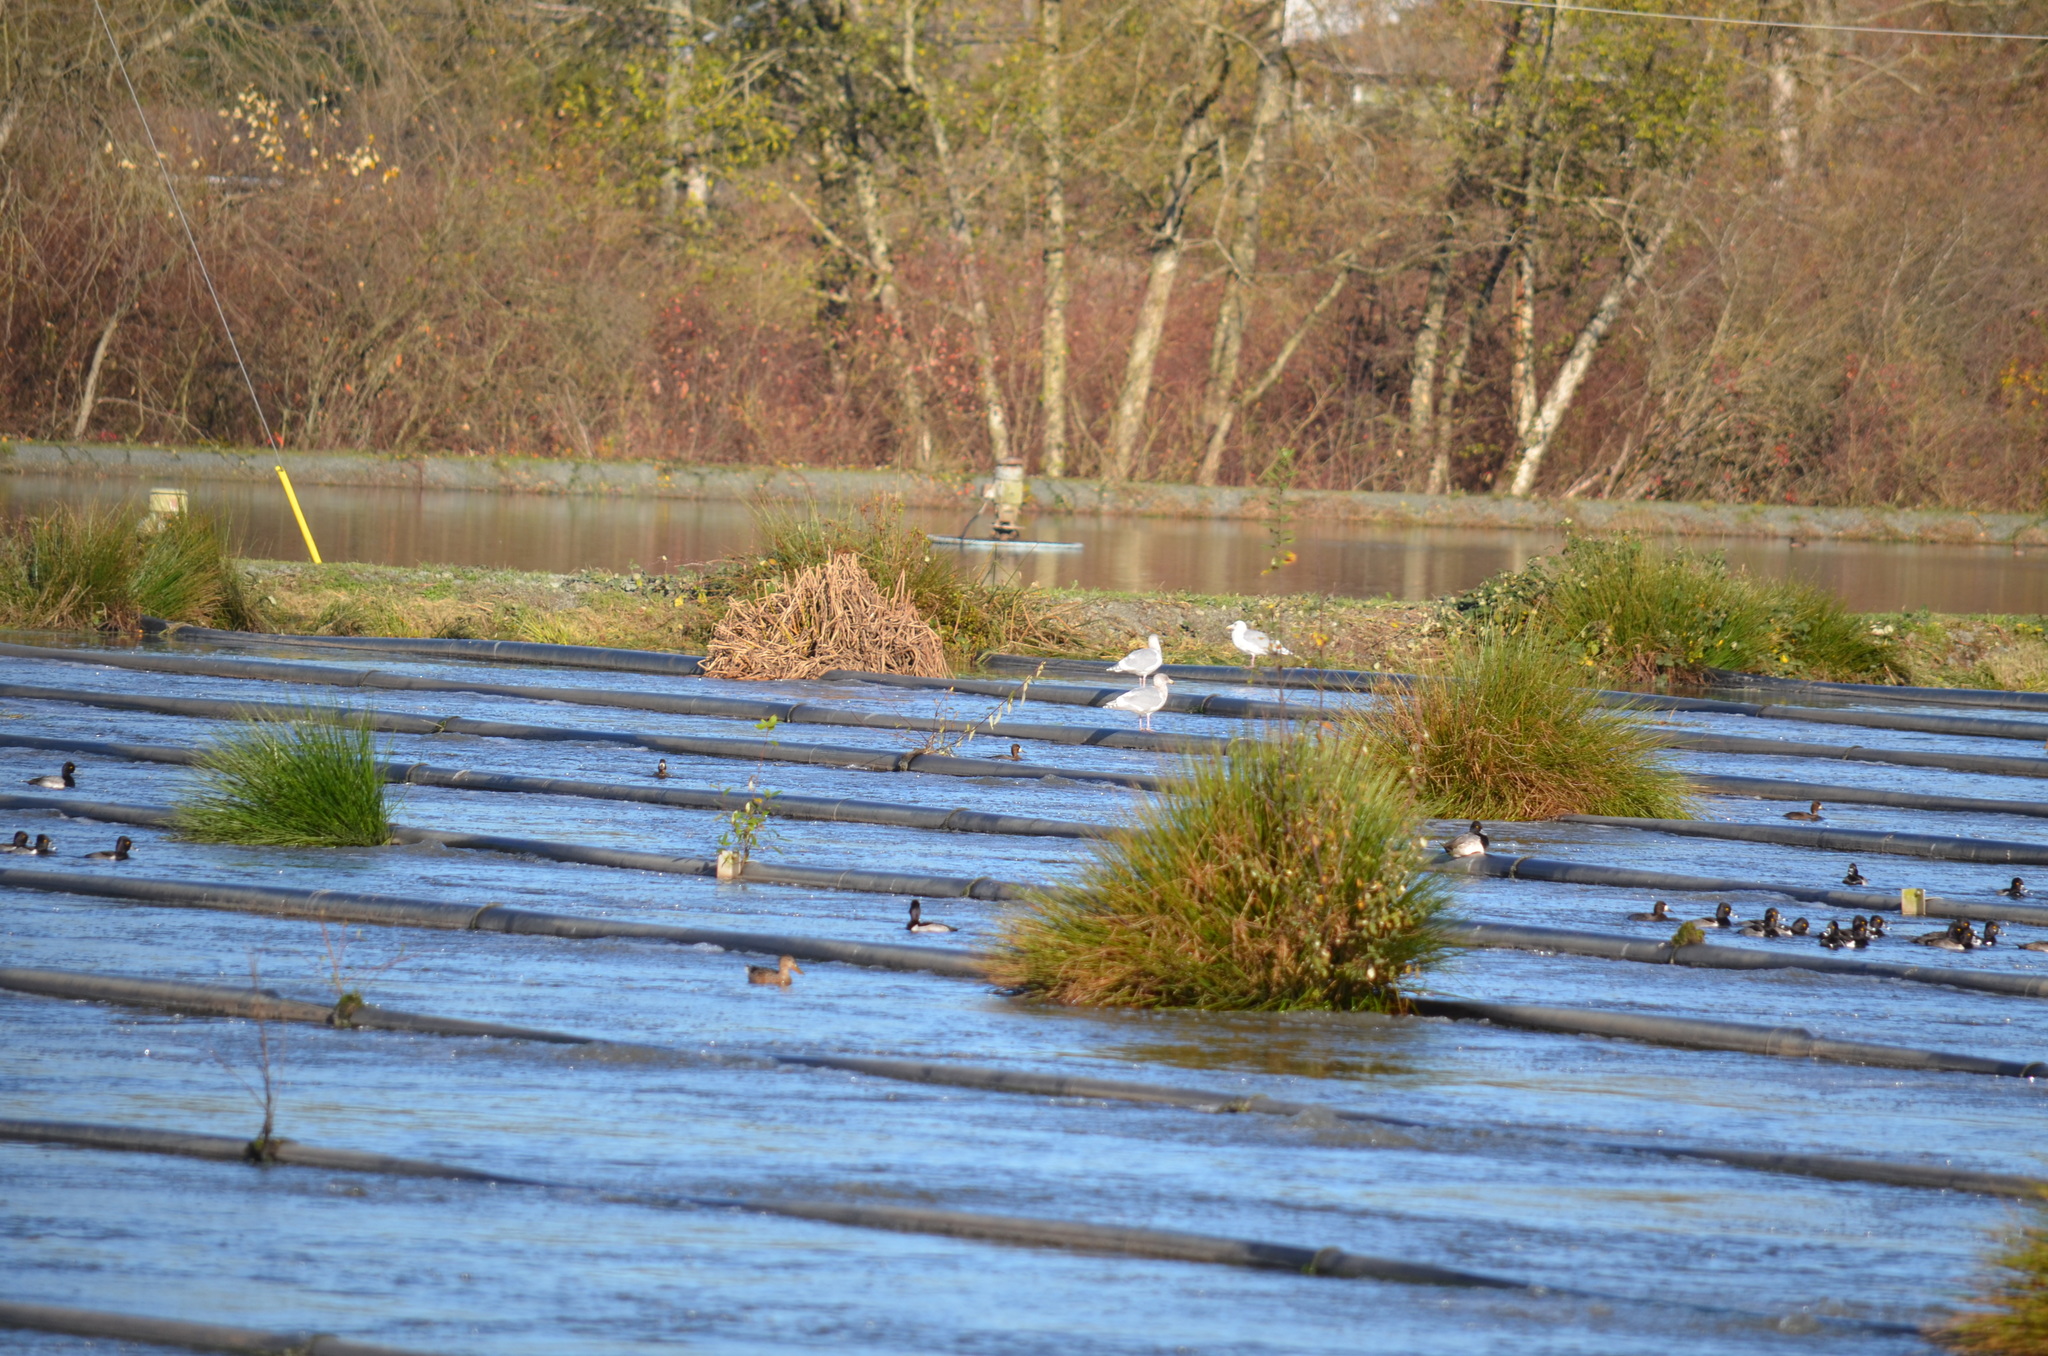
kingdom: Animalia
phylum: Chordata
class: Aves
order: Anseriformes
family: Anatidae
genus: Aythya
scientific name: Aythya collaris
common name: Ring-necked duck
